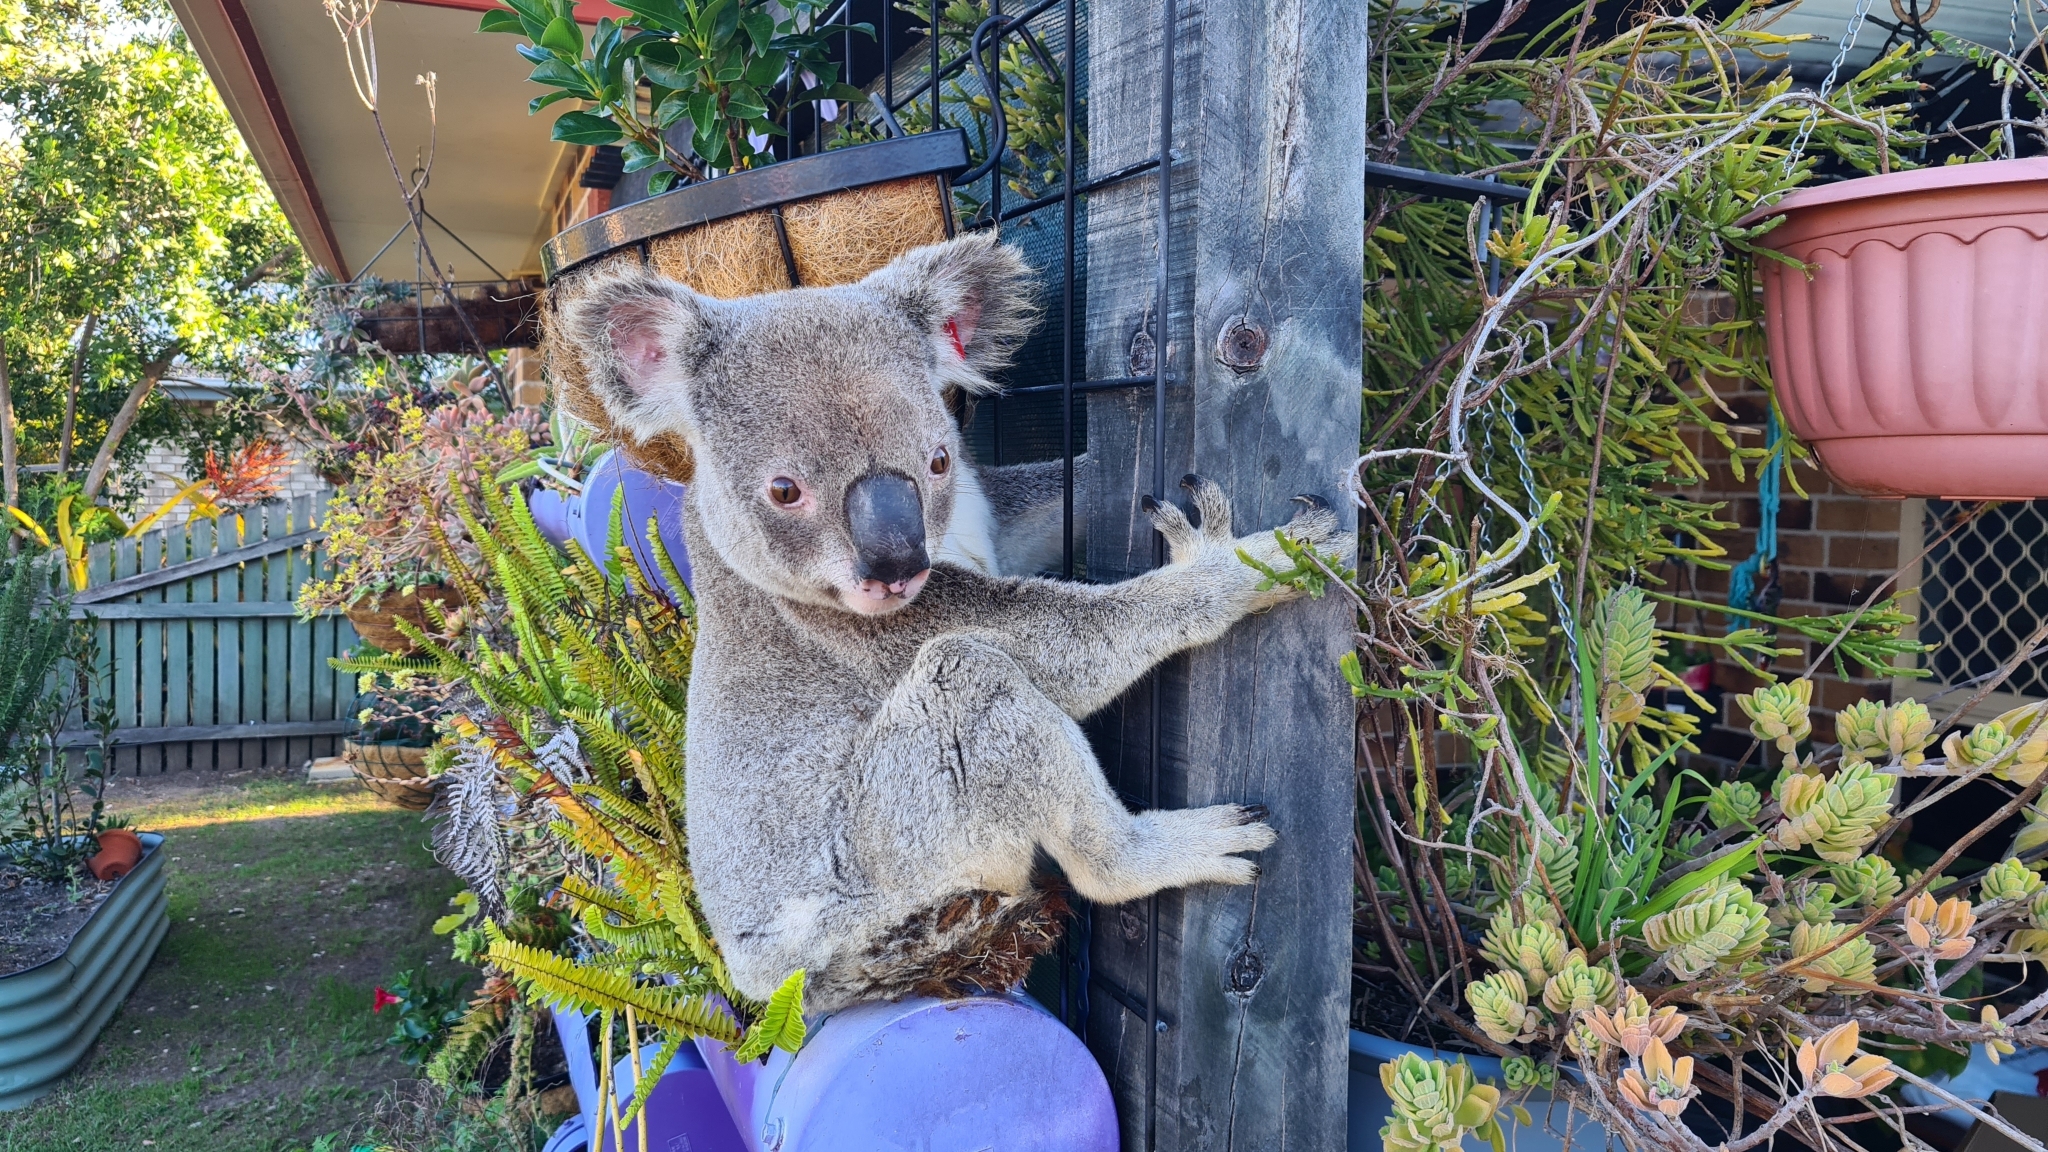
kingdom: Bacteria
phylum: Chlamydiota
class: Chlamydiia
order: Chlamydiales
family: Chlamydiaceae
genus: Chlamydophila
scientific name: Chlamydophila pecorum
